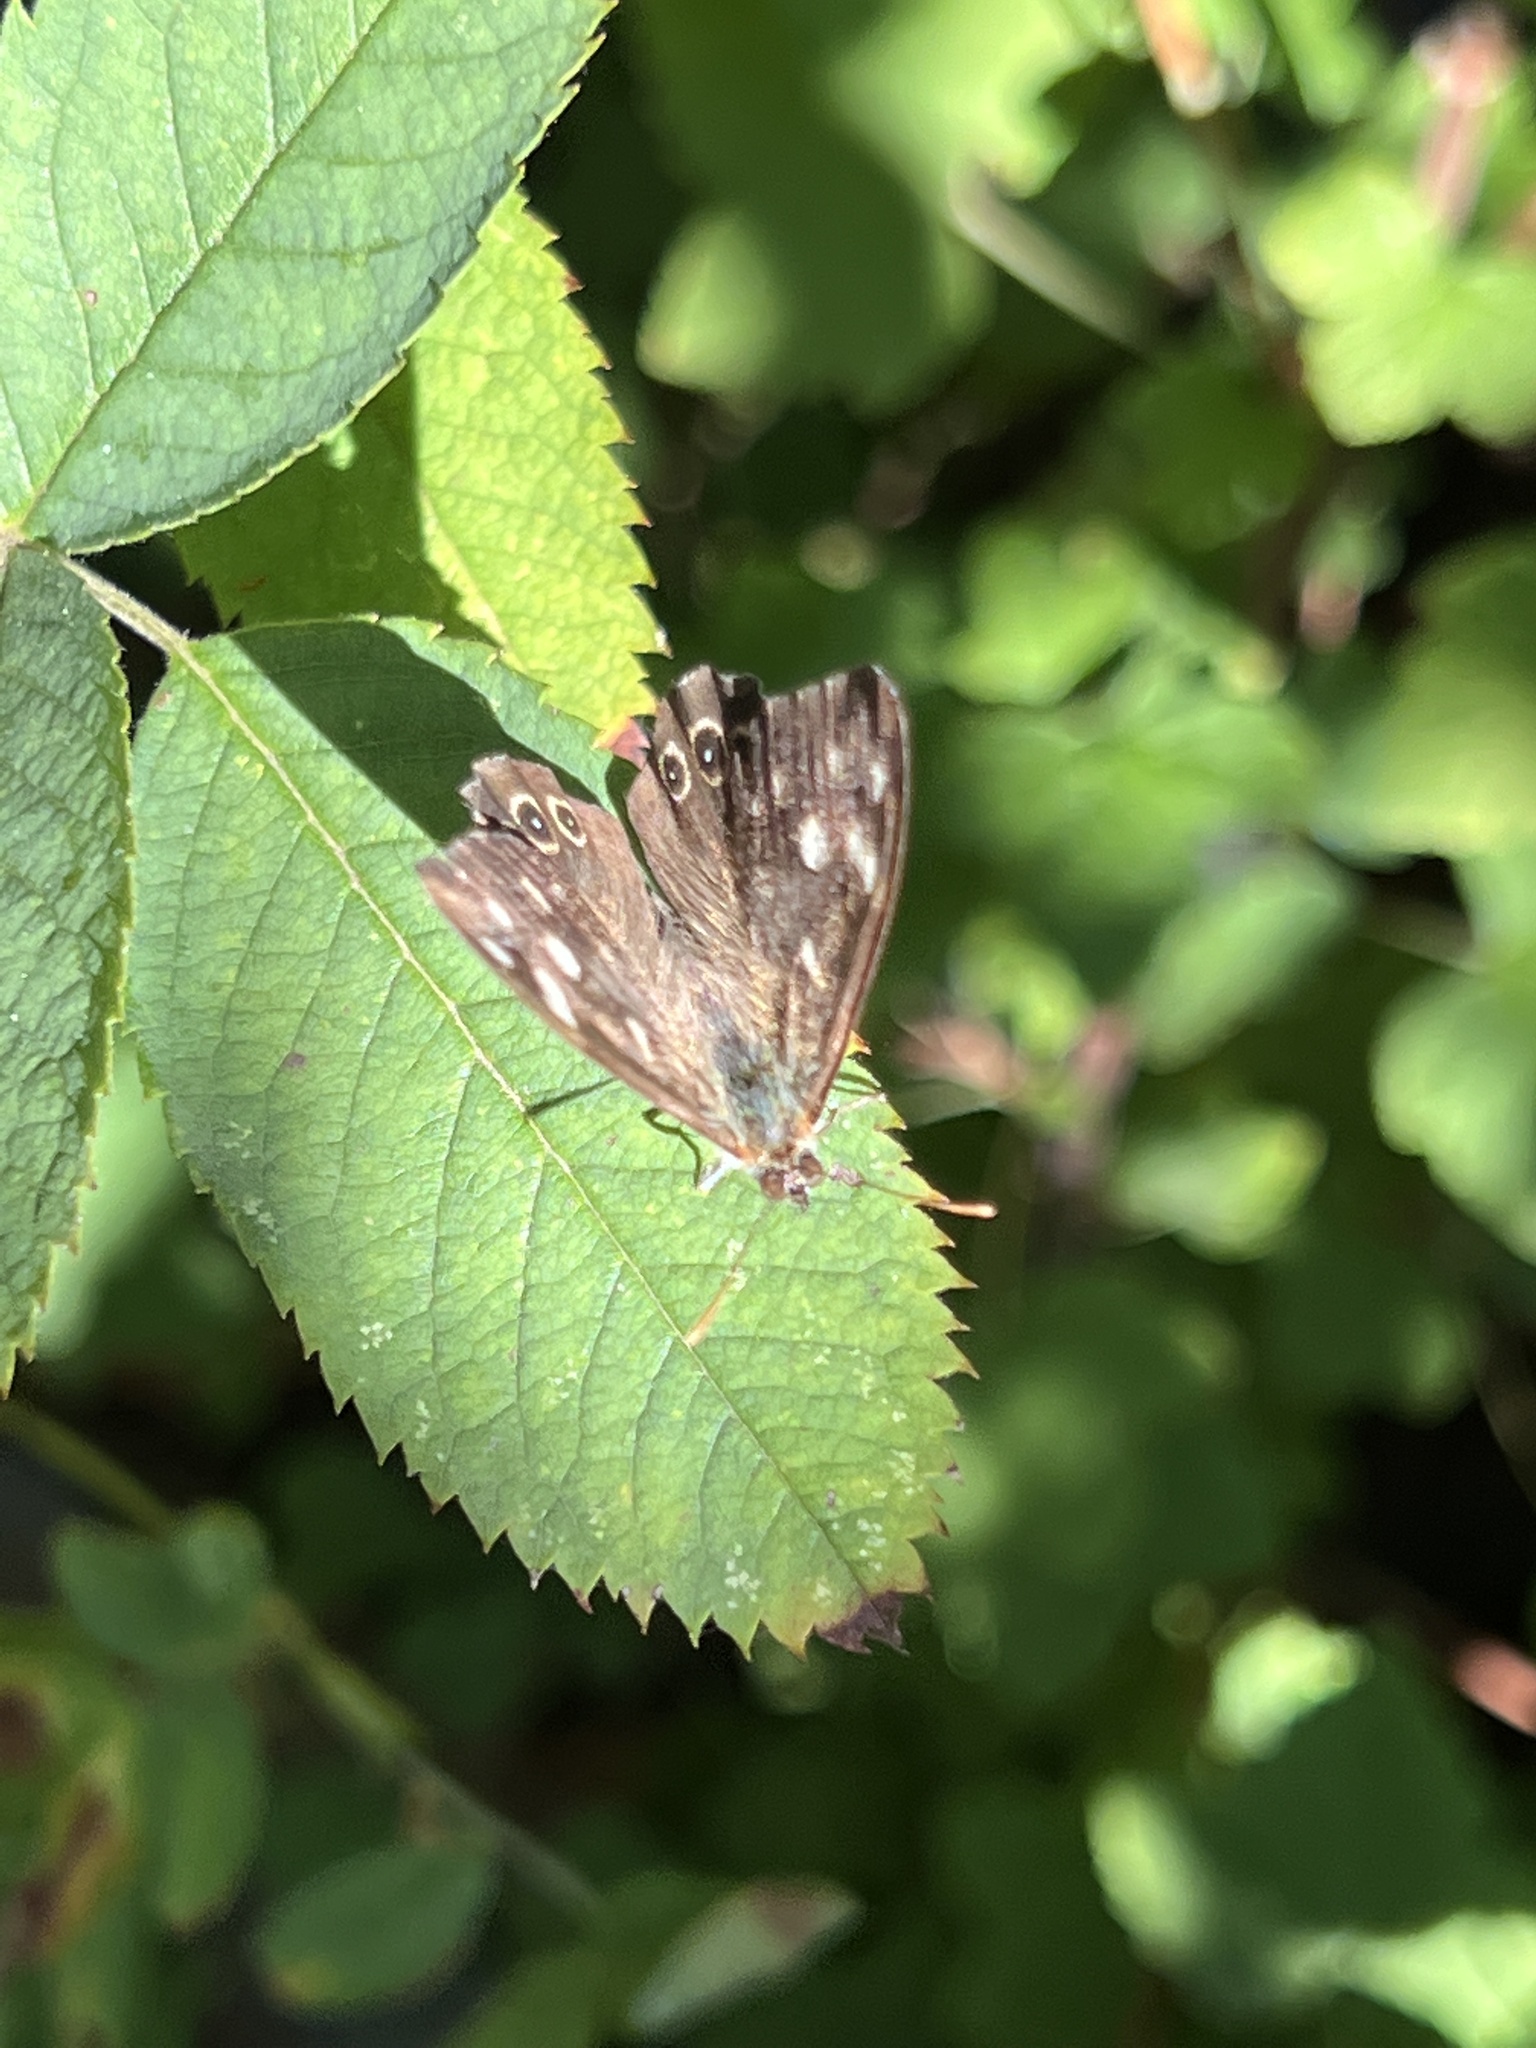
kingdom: Animalia
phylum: Arthropoda
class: Insecta
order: Lepidoptera
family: Nymphalidae
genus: Pararge
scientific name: Pararge aegeria
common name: Speckled wood
